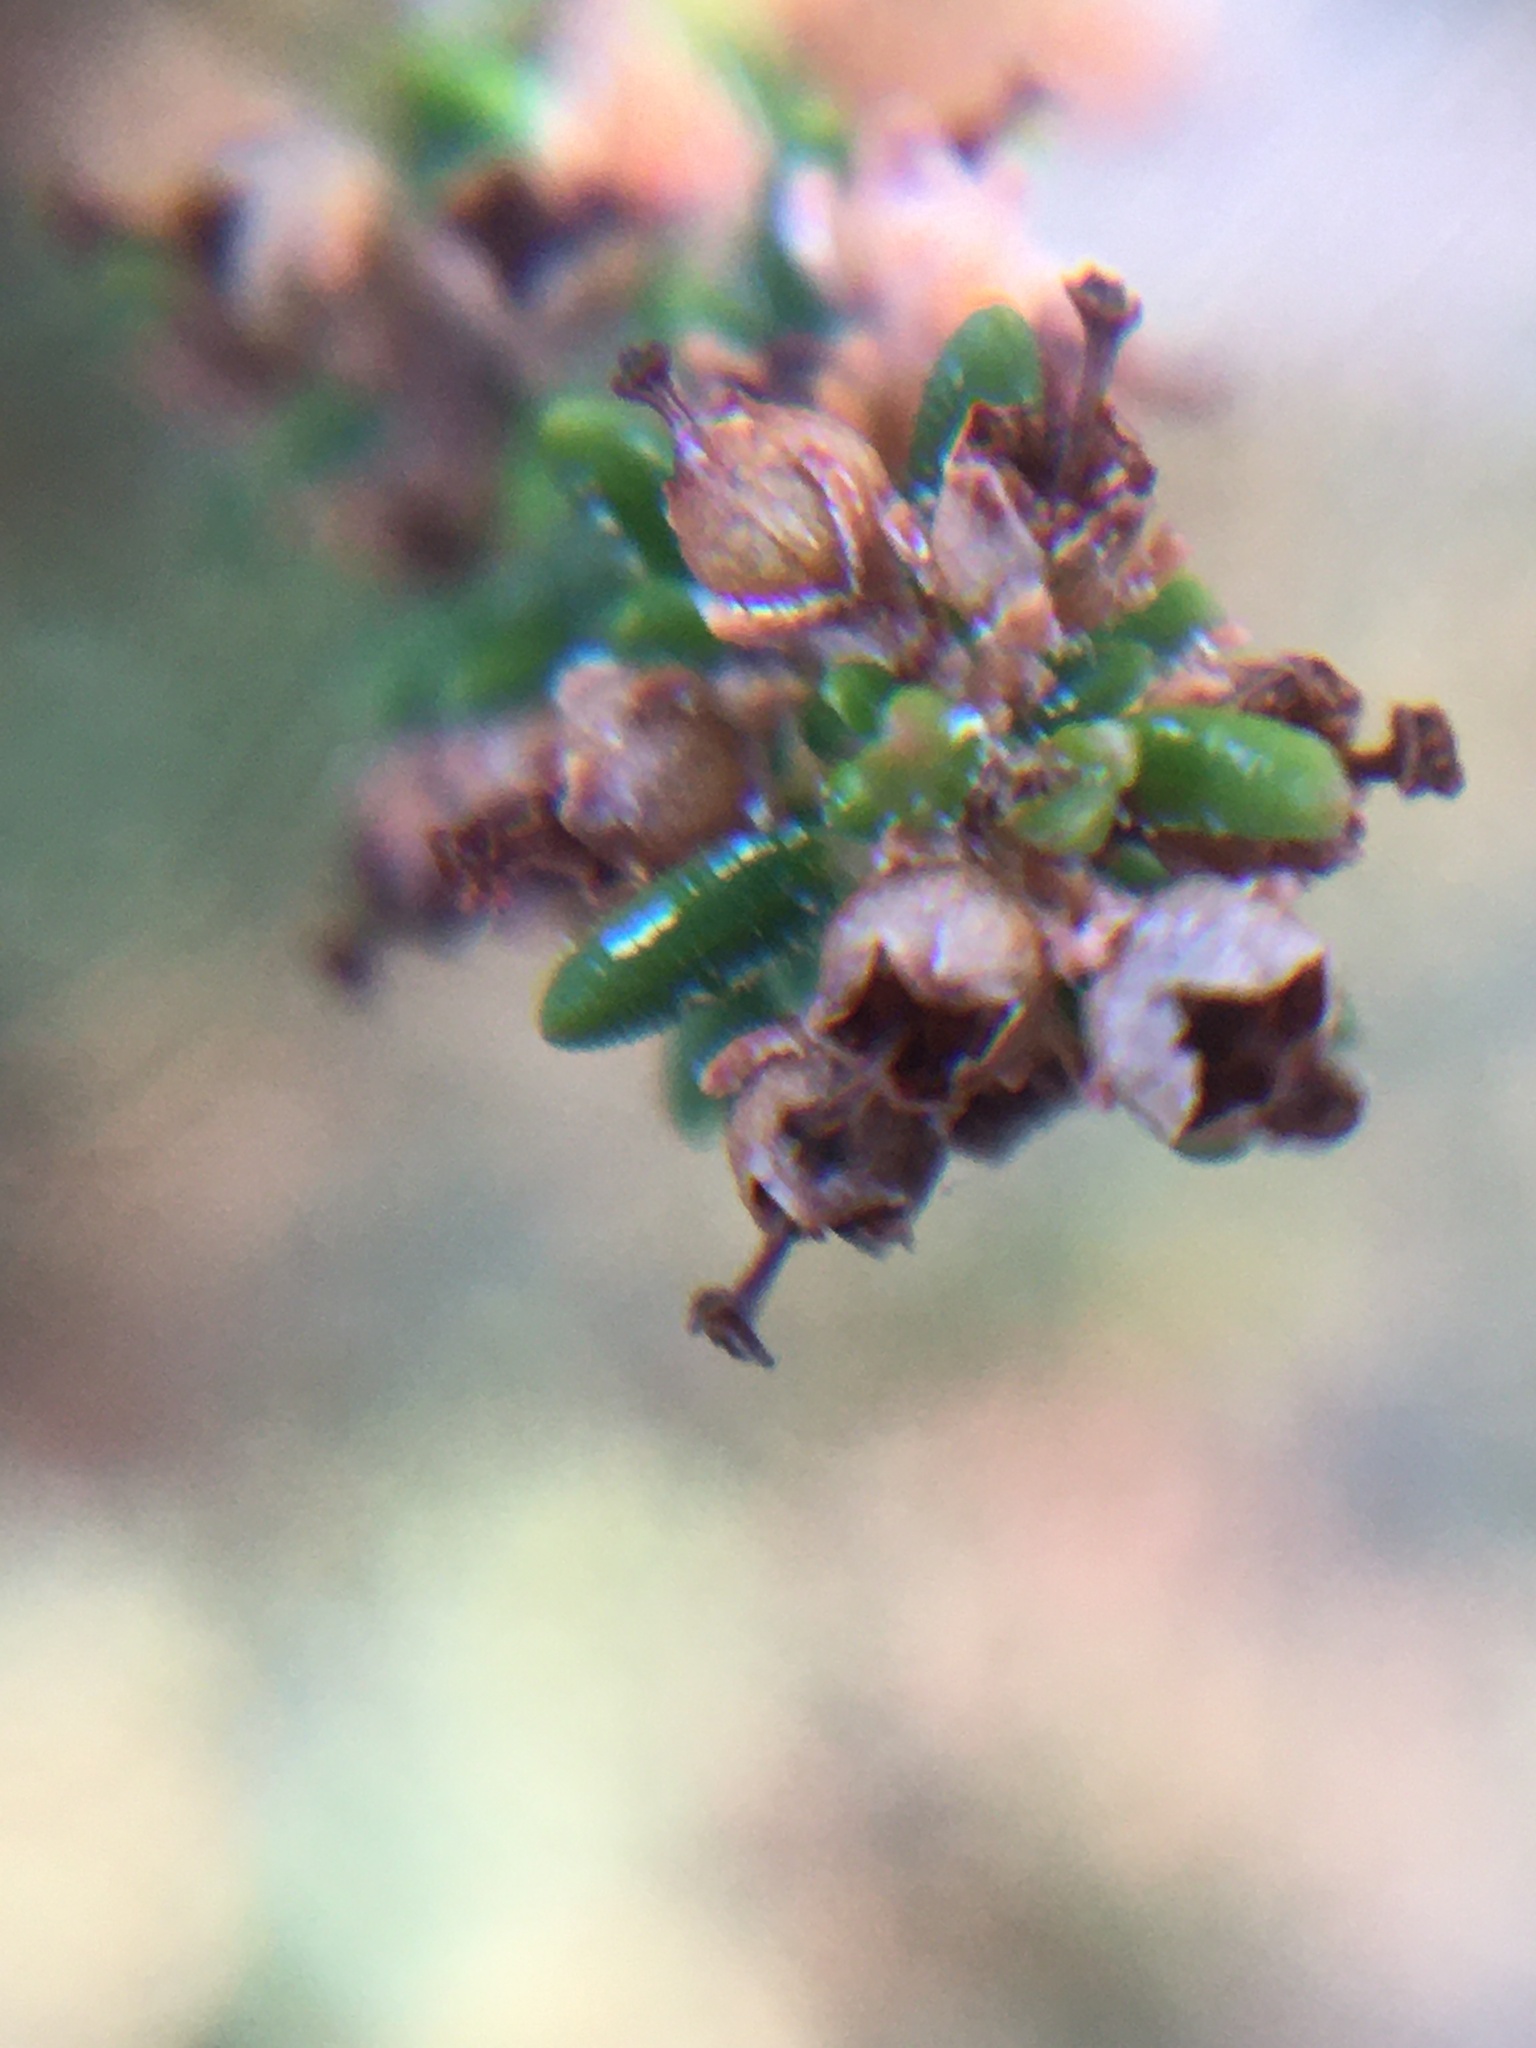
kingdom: Plantae
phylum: Tracheophyta
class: Magnoliopsida
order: Ericales
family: Ericaceae
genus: Erica
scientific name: Erica hispidula
